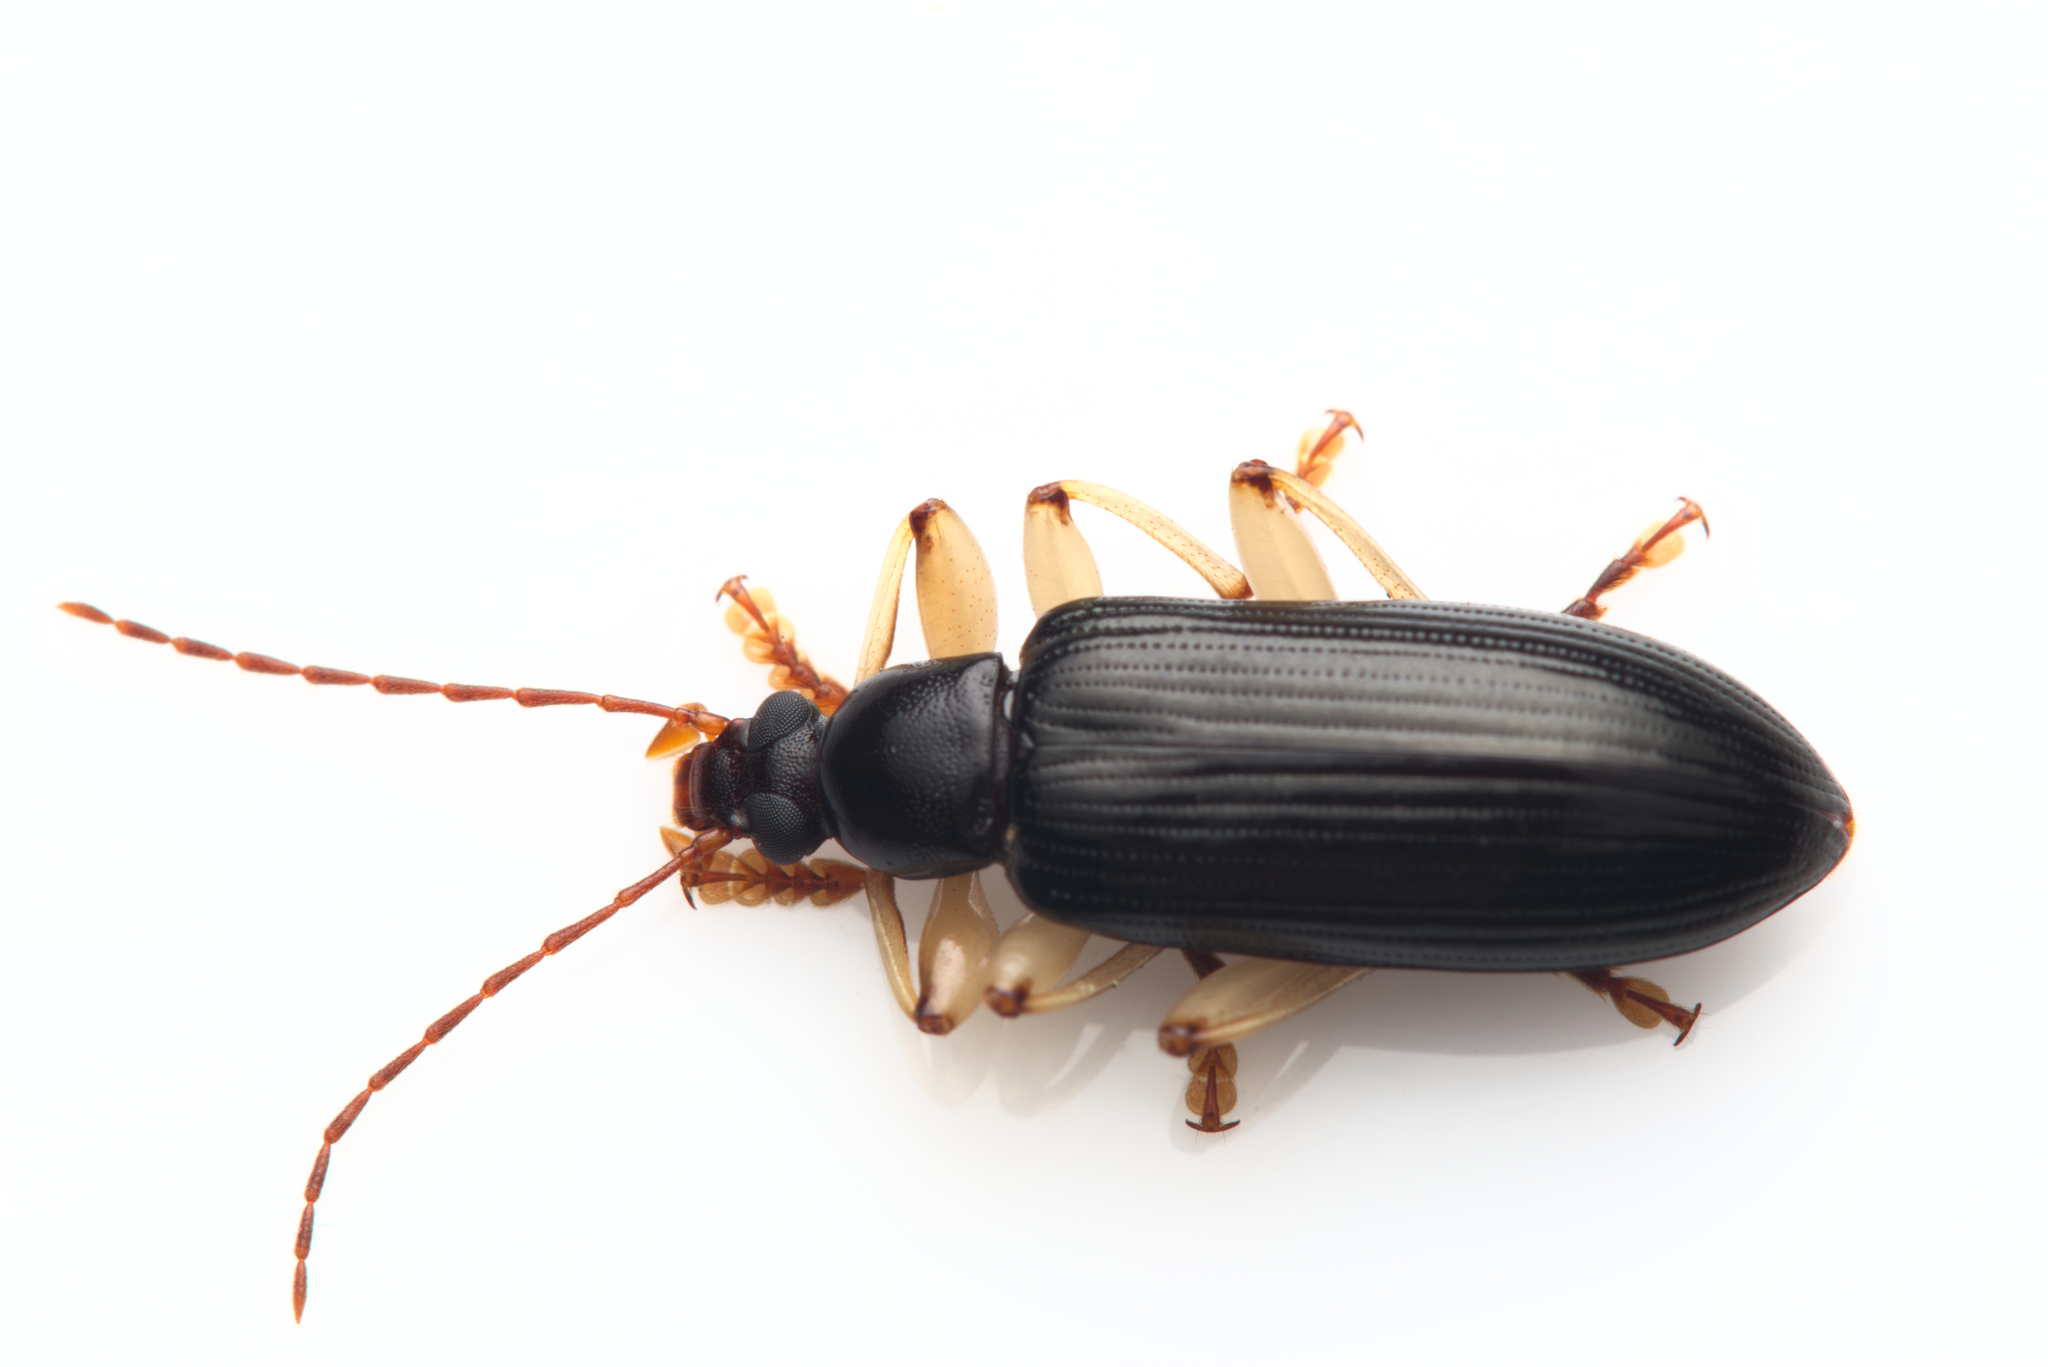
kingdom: Animalia
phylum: Arthropoda
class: Insecta
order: Coleoptera
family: Tenebrionidae
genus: Dimorphochilus
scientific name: Dimorphochilus
